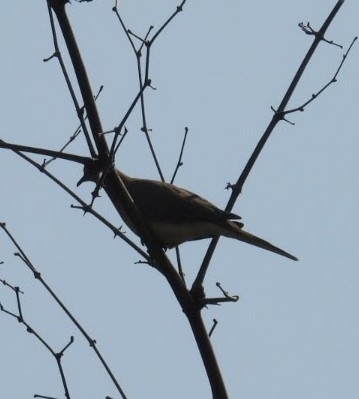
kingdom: Animalia
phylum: Chordata
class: Aves
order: Columbiformes
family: Columbidae
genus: Spilopelia
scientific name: Spilopelia senegalensis
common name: Laughing dove
